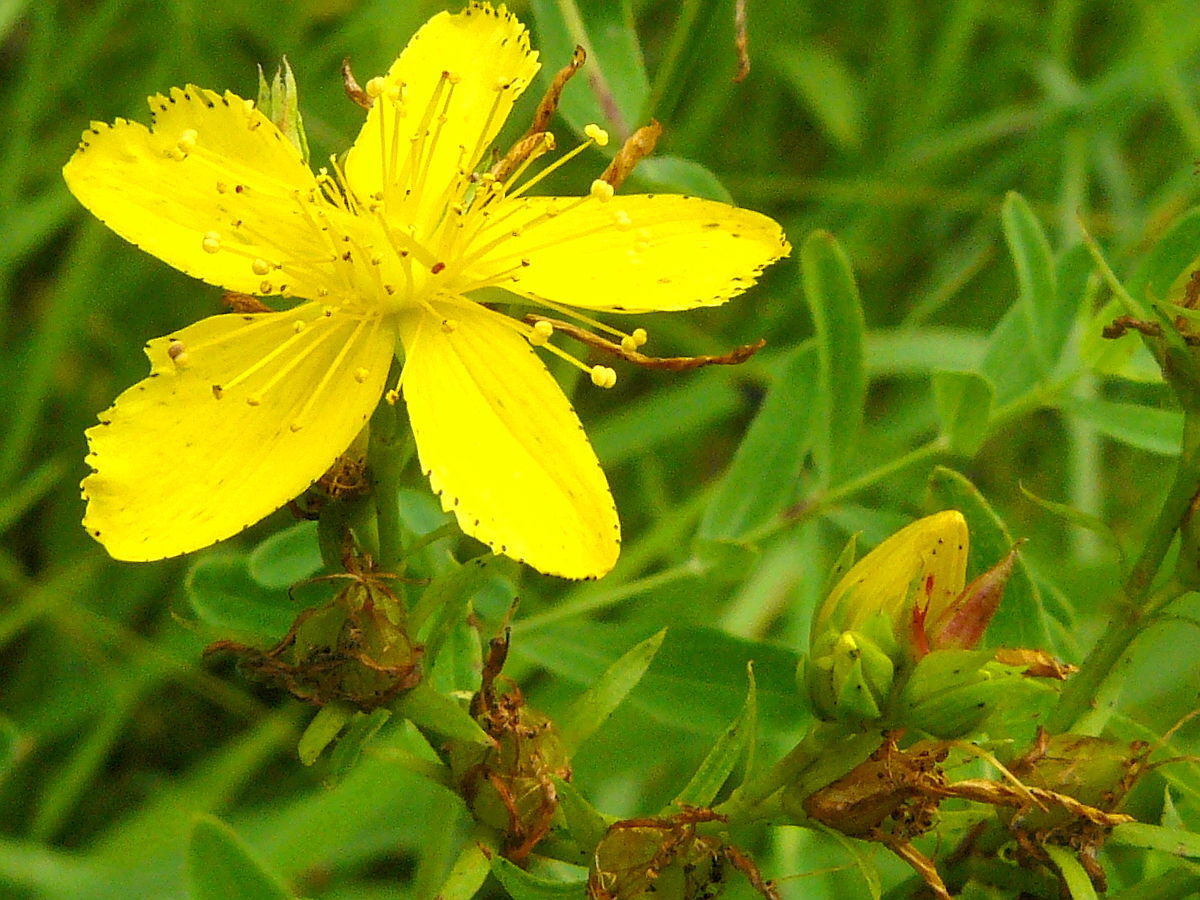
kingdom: Plantae
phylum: Tracheophyta
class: Magnoliopsida
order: Malpighiales
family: Hypericaceae
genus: Hypericum
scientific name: Hypericum perforatum
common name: Common st. johnswort
